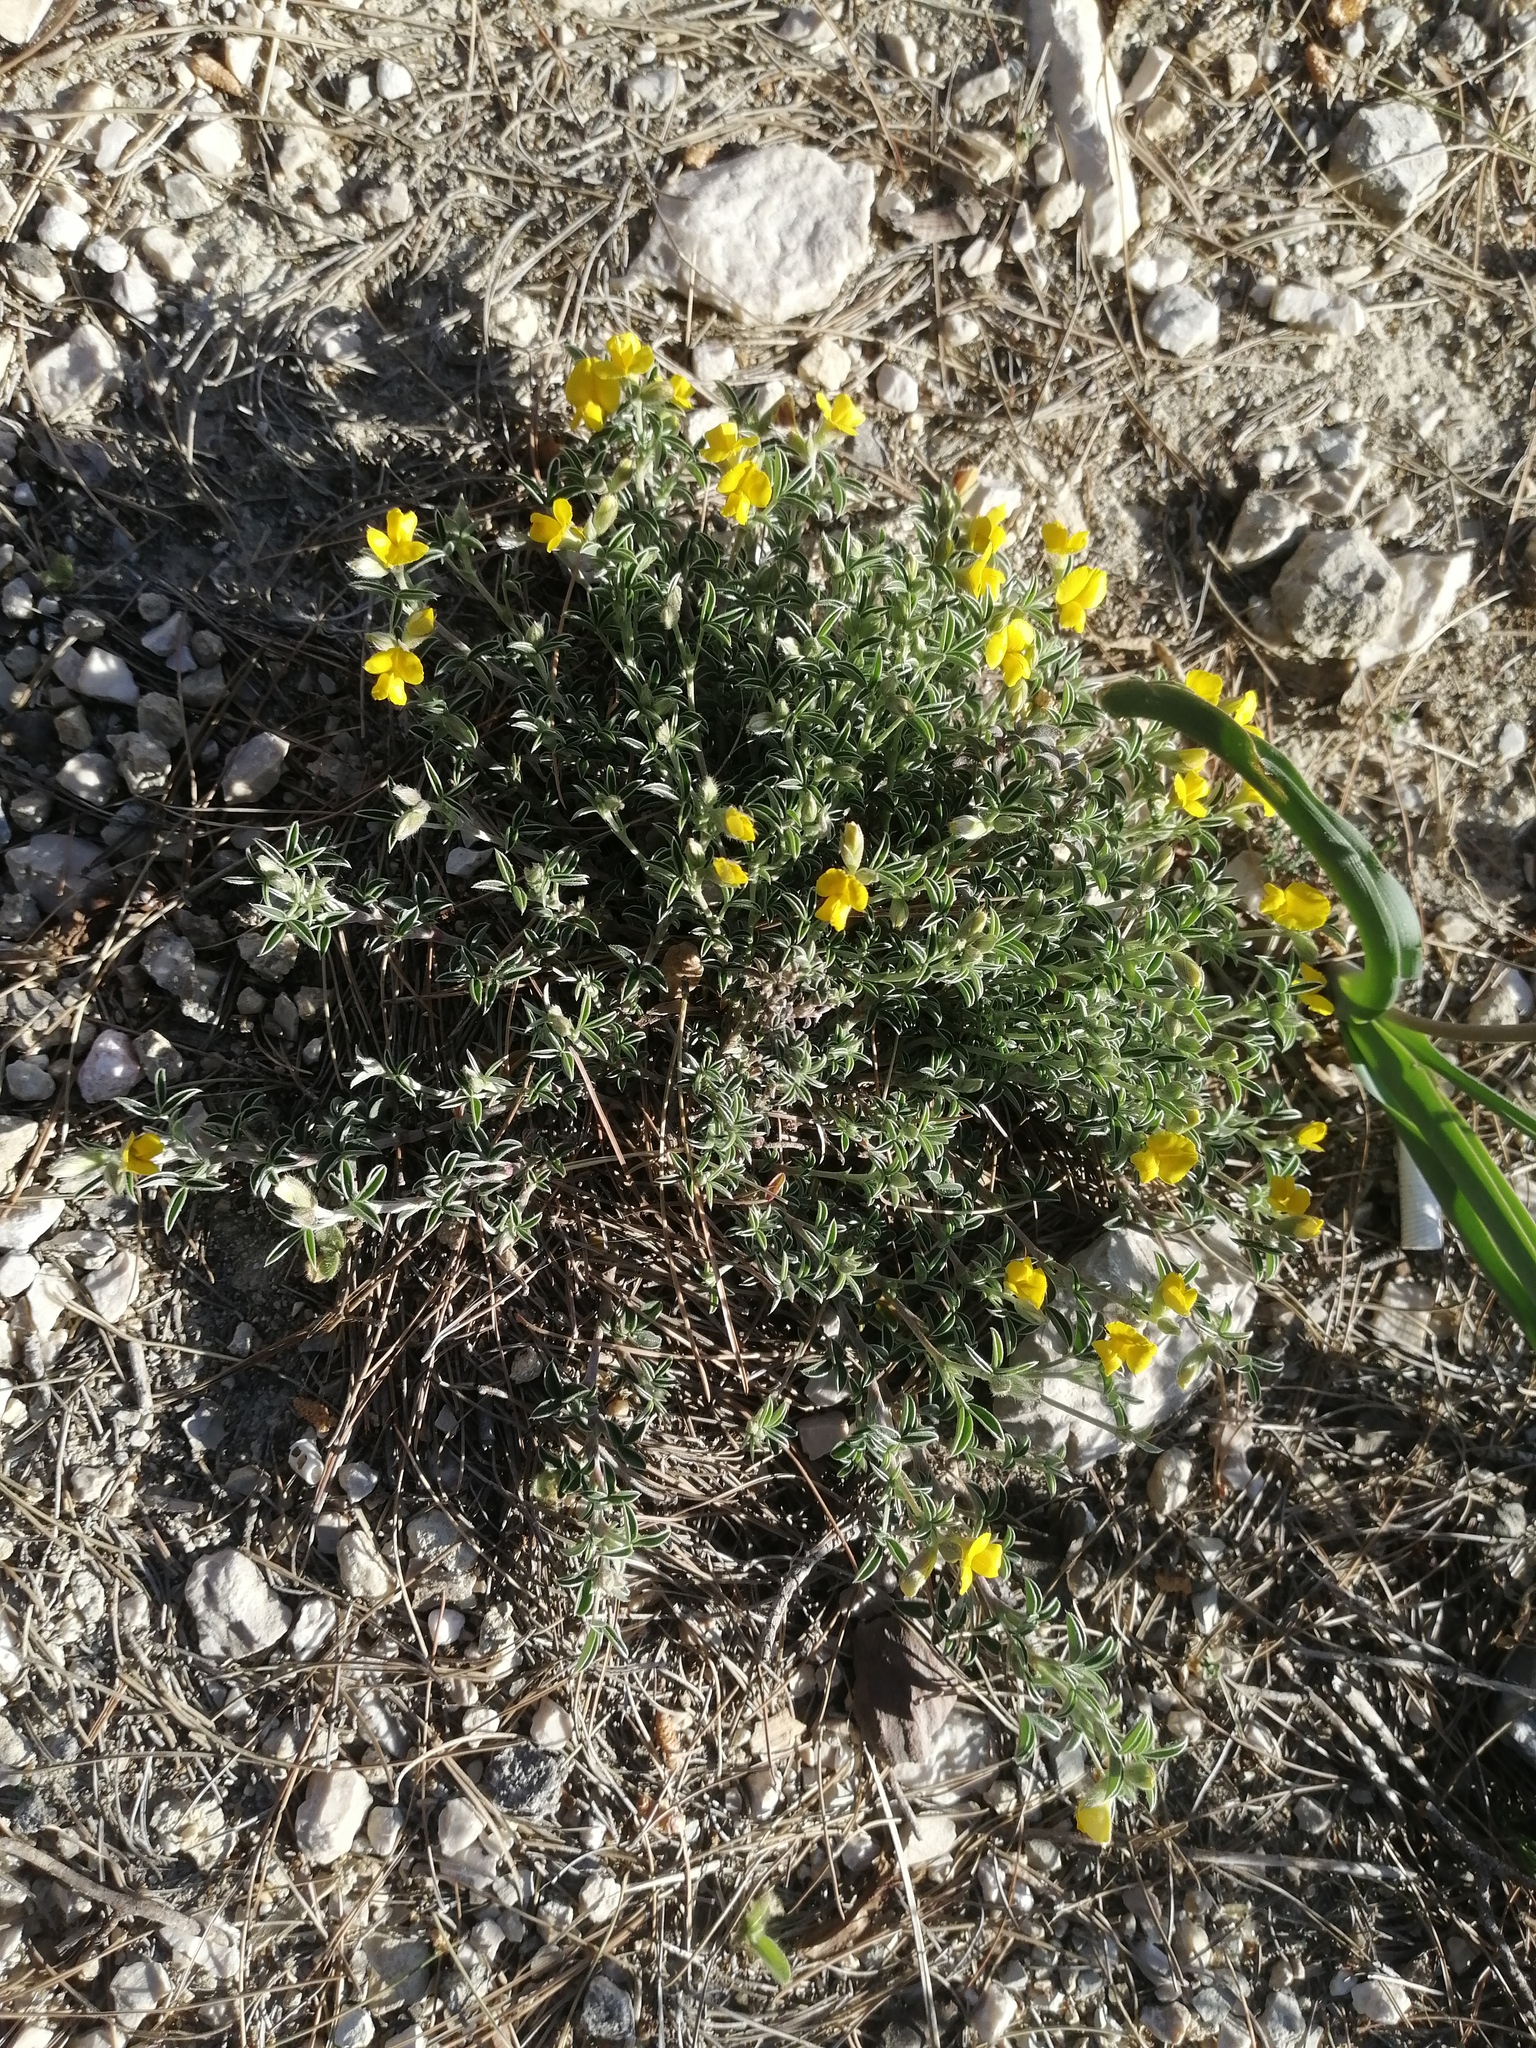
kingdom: Plantae
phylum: Tracheophyta
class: Magnoliopsida
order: Fabales
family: Fabaceae
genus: Argyrolobium
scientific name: Argyrolobium zanonii
